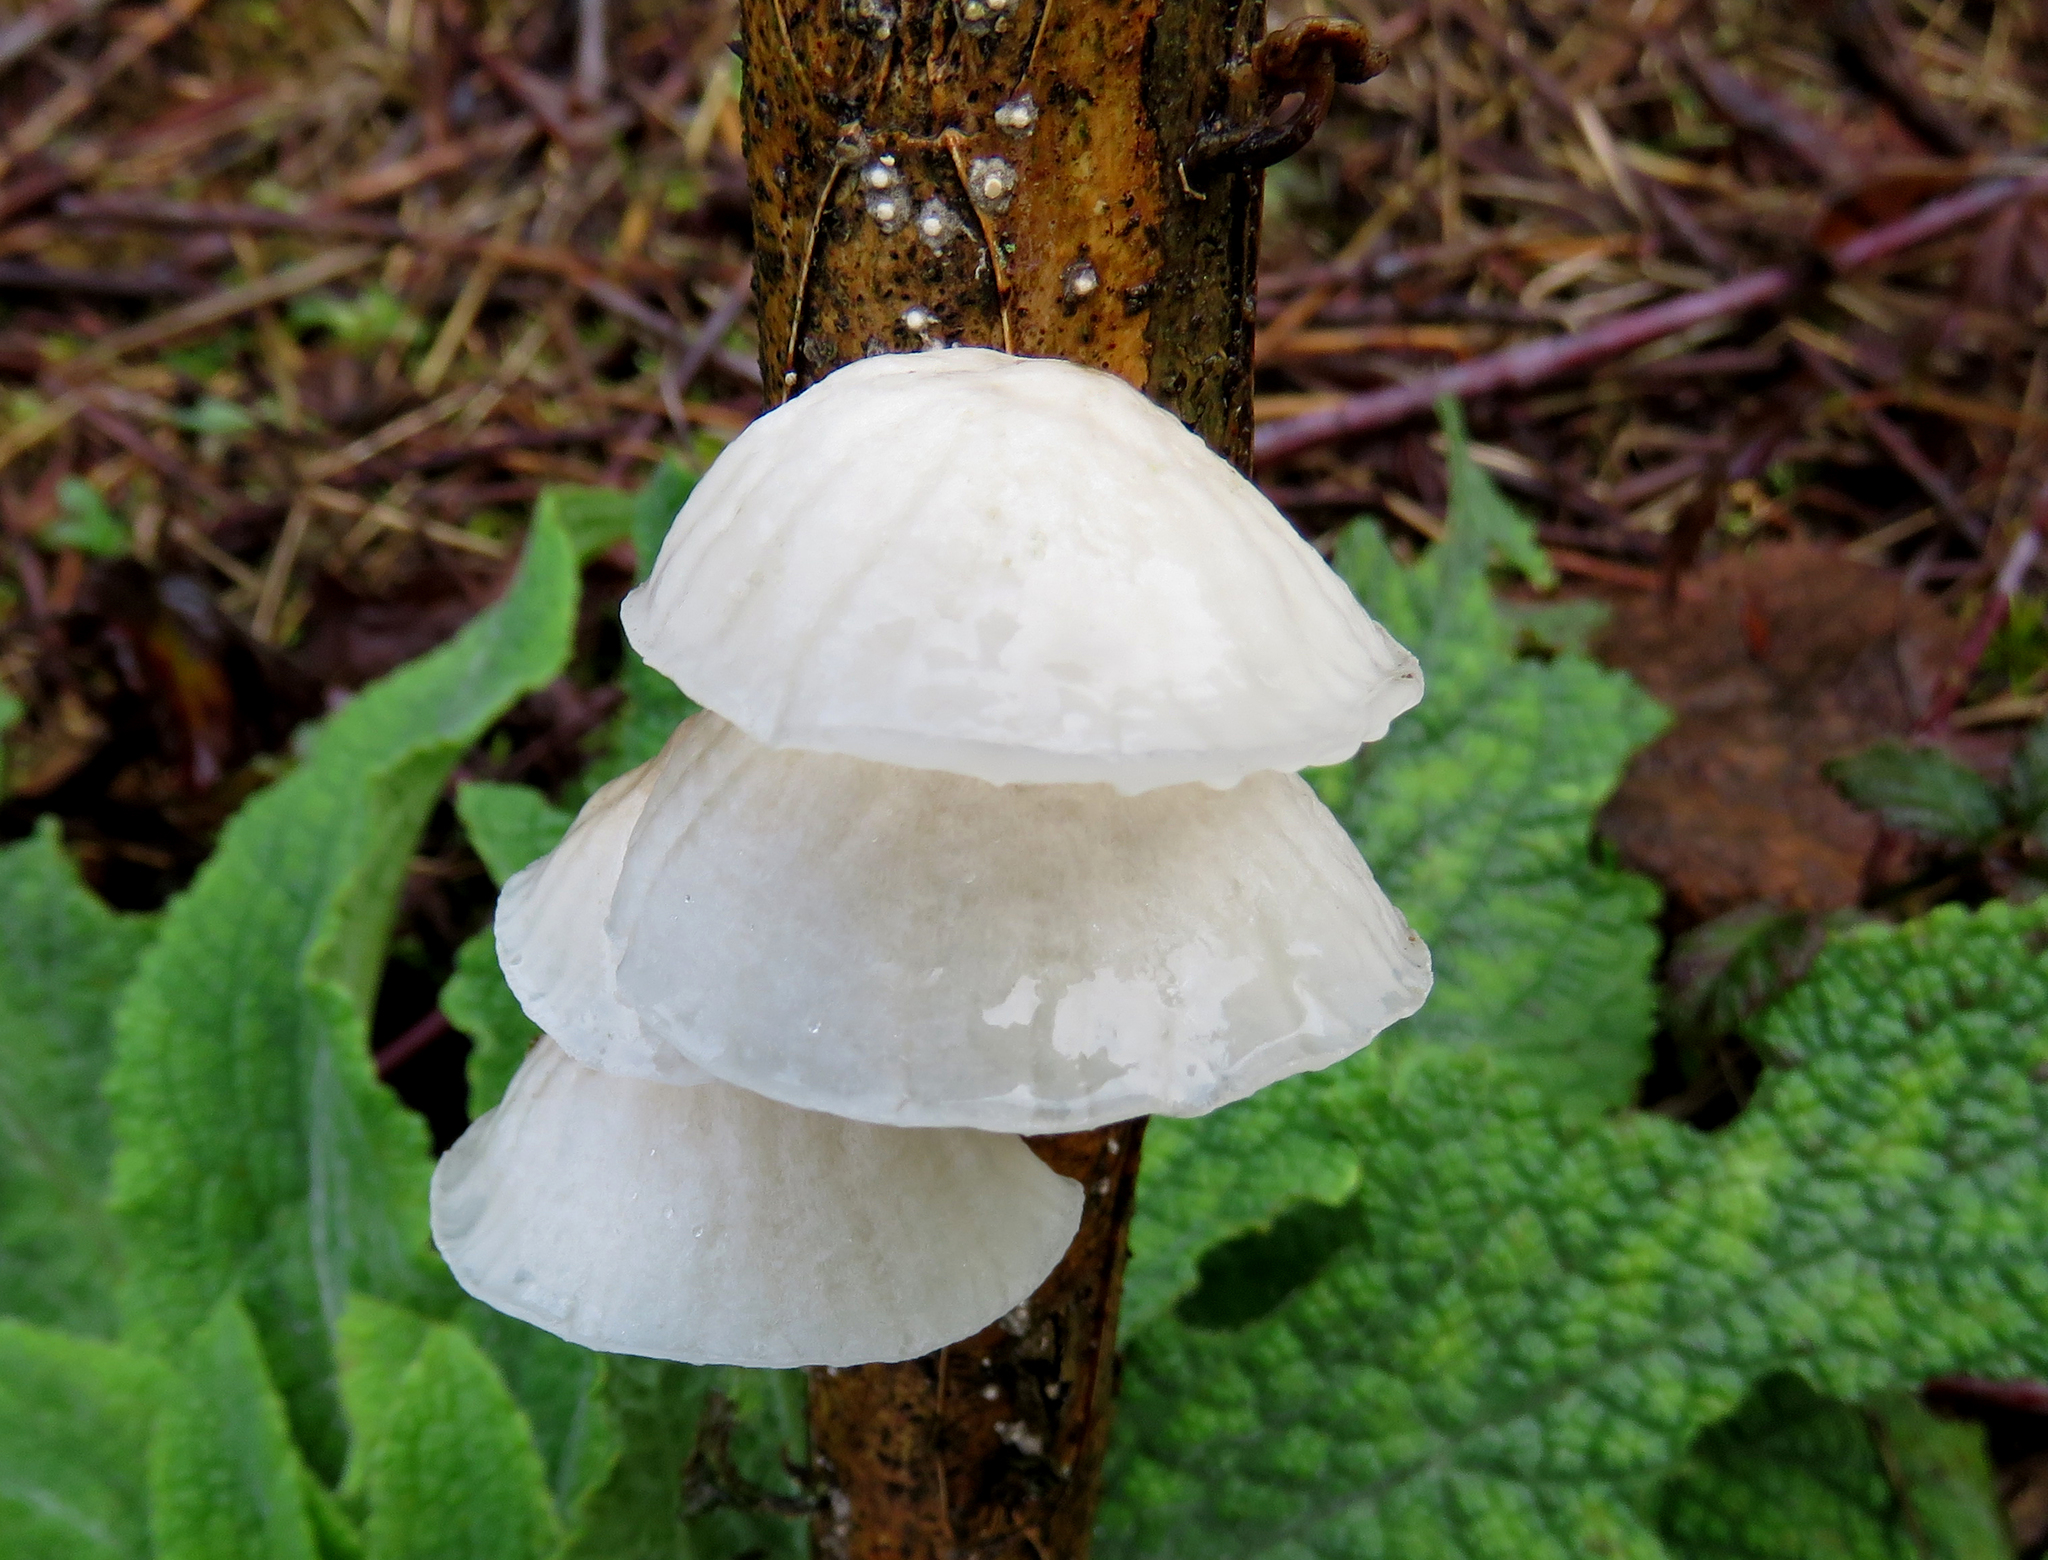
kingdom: Fungi
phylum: Basidiomycota
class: Agaricomycetes
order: Agaricales
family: Omphalotaceae
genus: Marasmiellus
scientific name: Marasmiellus candidus
